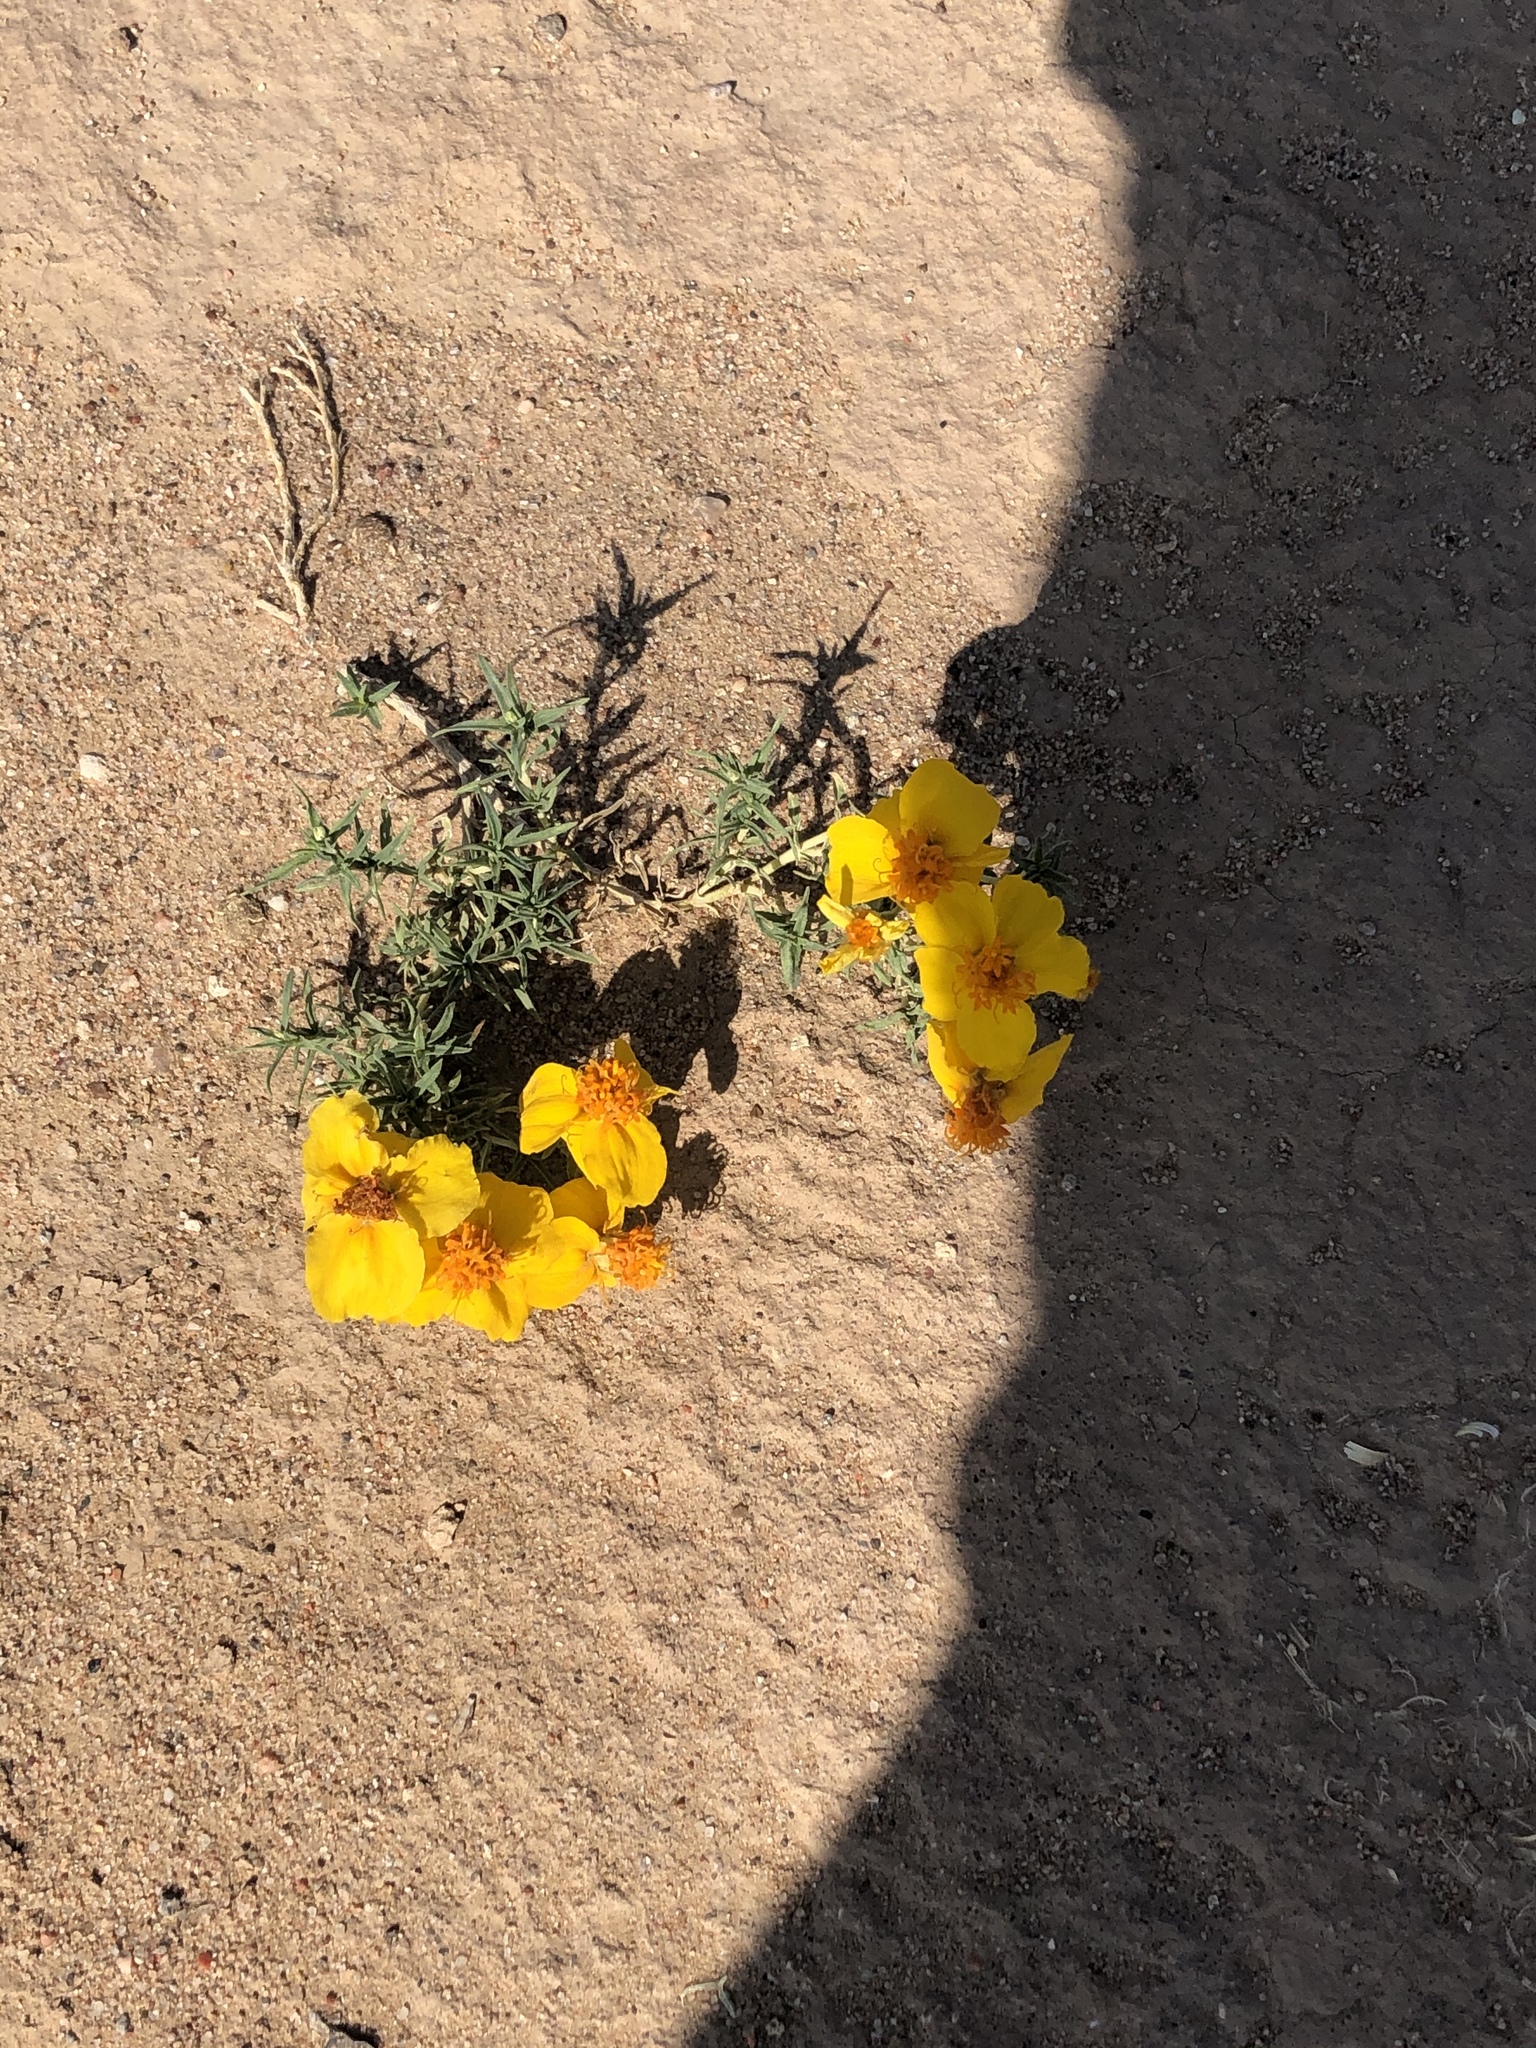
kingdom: Plantae
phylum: Tracheophyta
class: Magnoliopsida
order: Asterales
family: Asteraceae
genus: Zinnia
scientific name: Zinnia grandiflora
